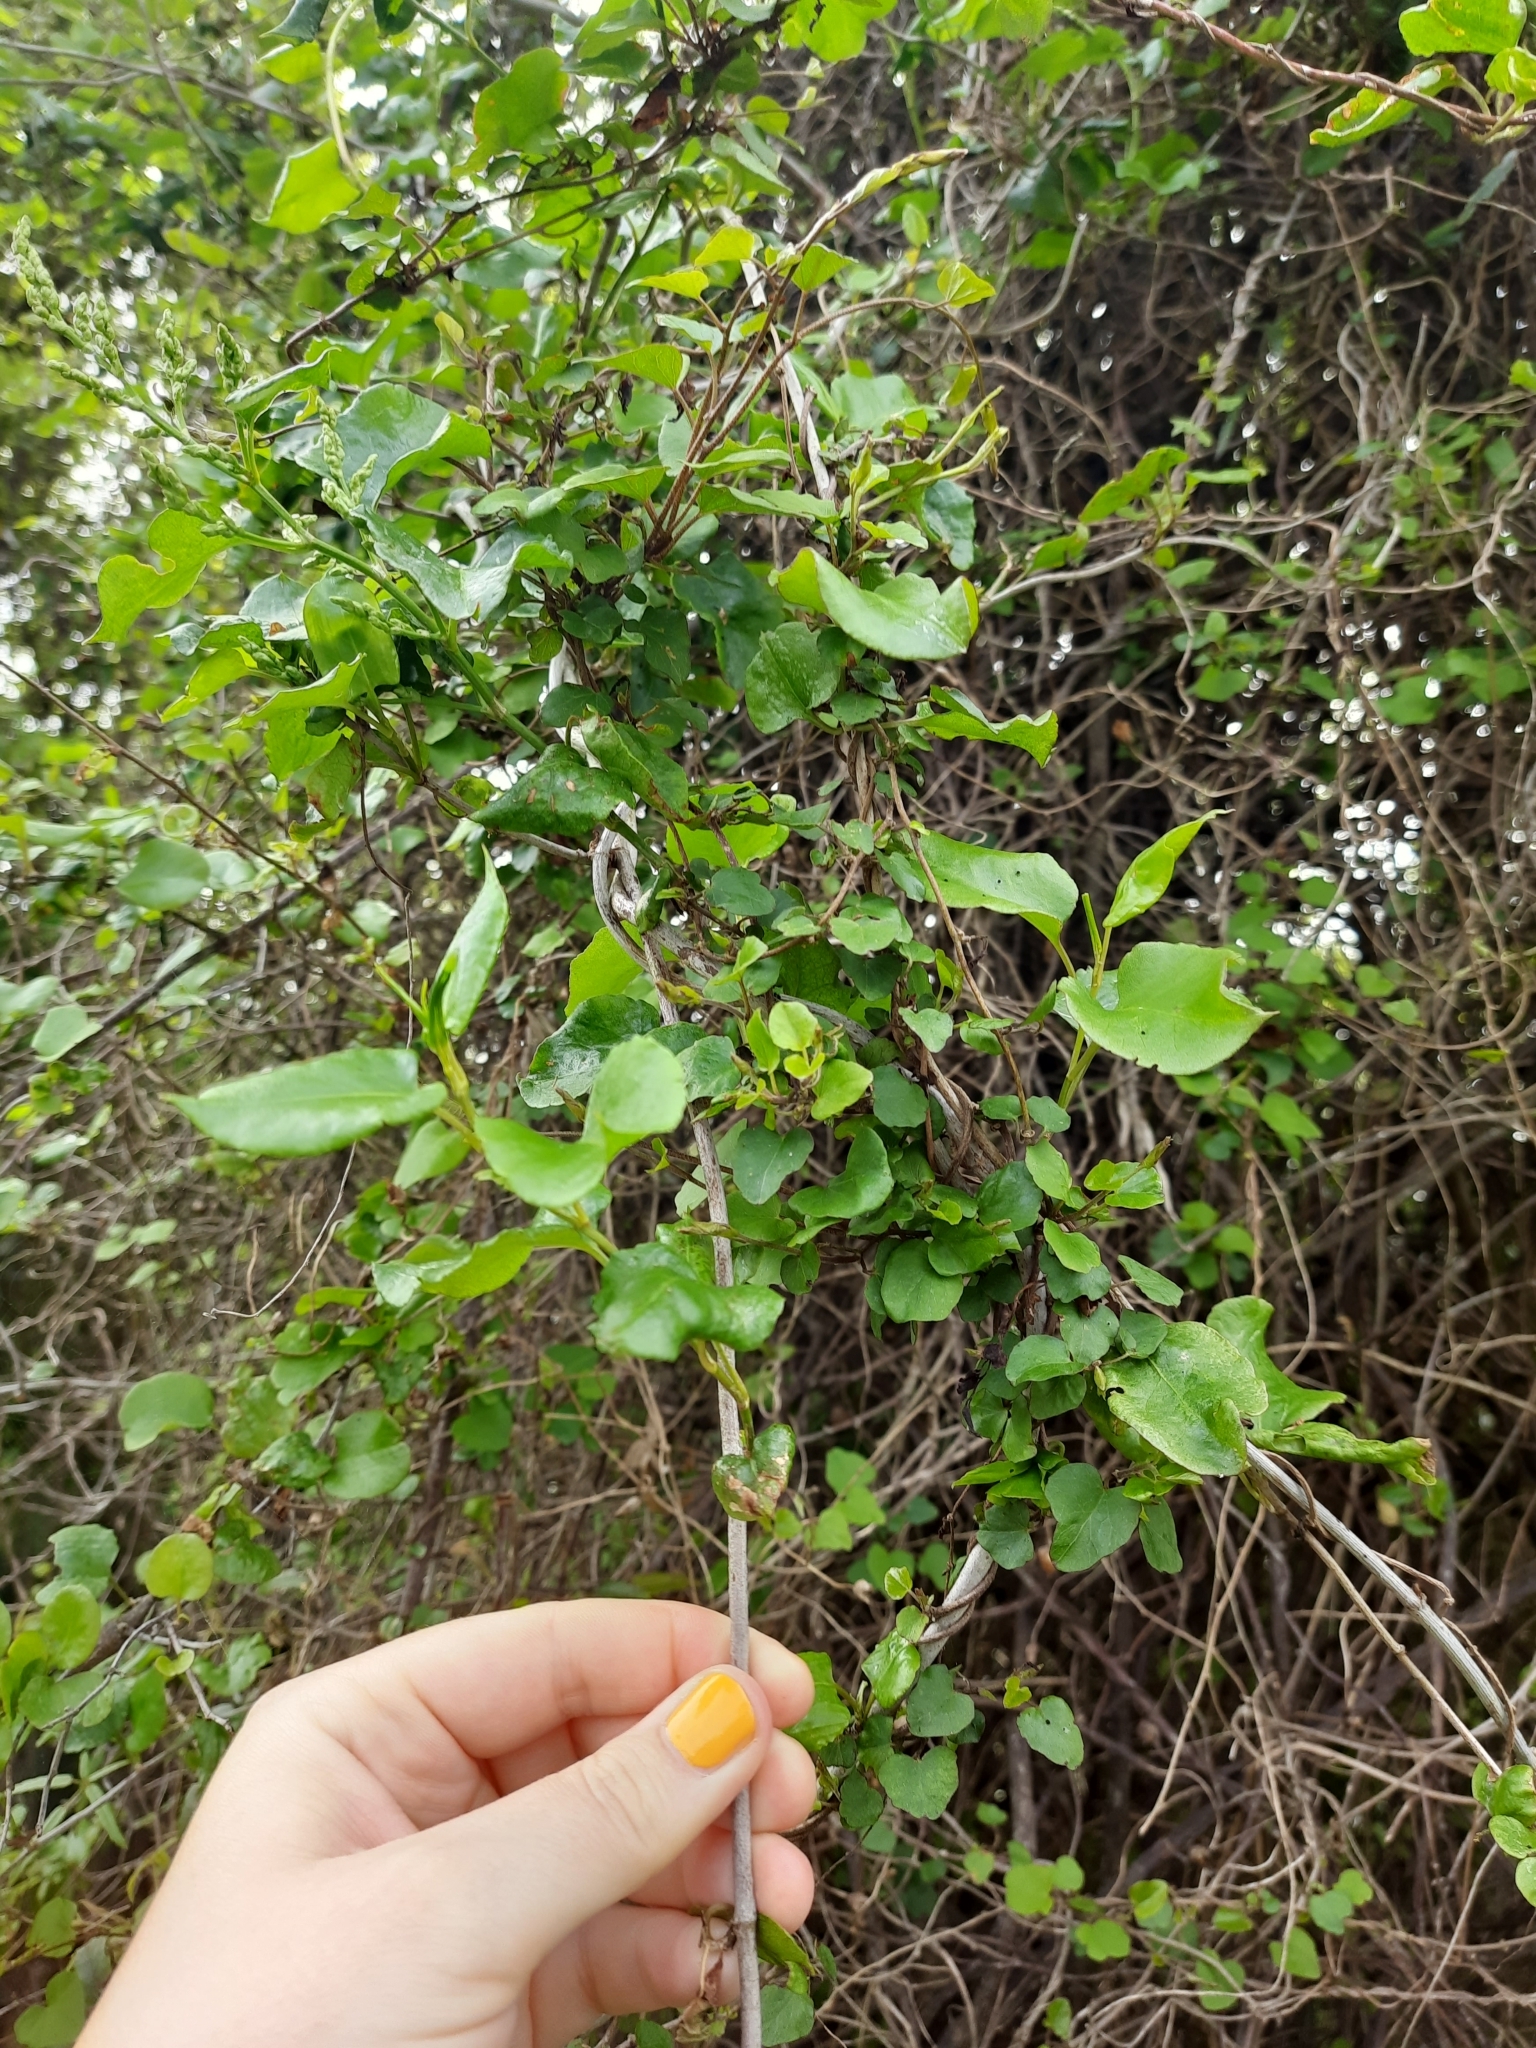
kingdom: Plantae
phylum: Tracheophyta
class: Magnoliopsida
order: Caryophyllales
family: Polygonaceae
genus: Muehlenbeckia
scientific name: Muehlenbeckia australis
